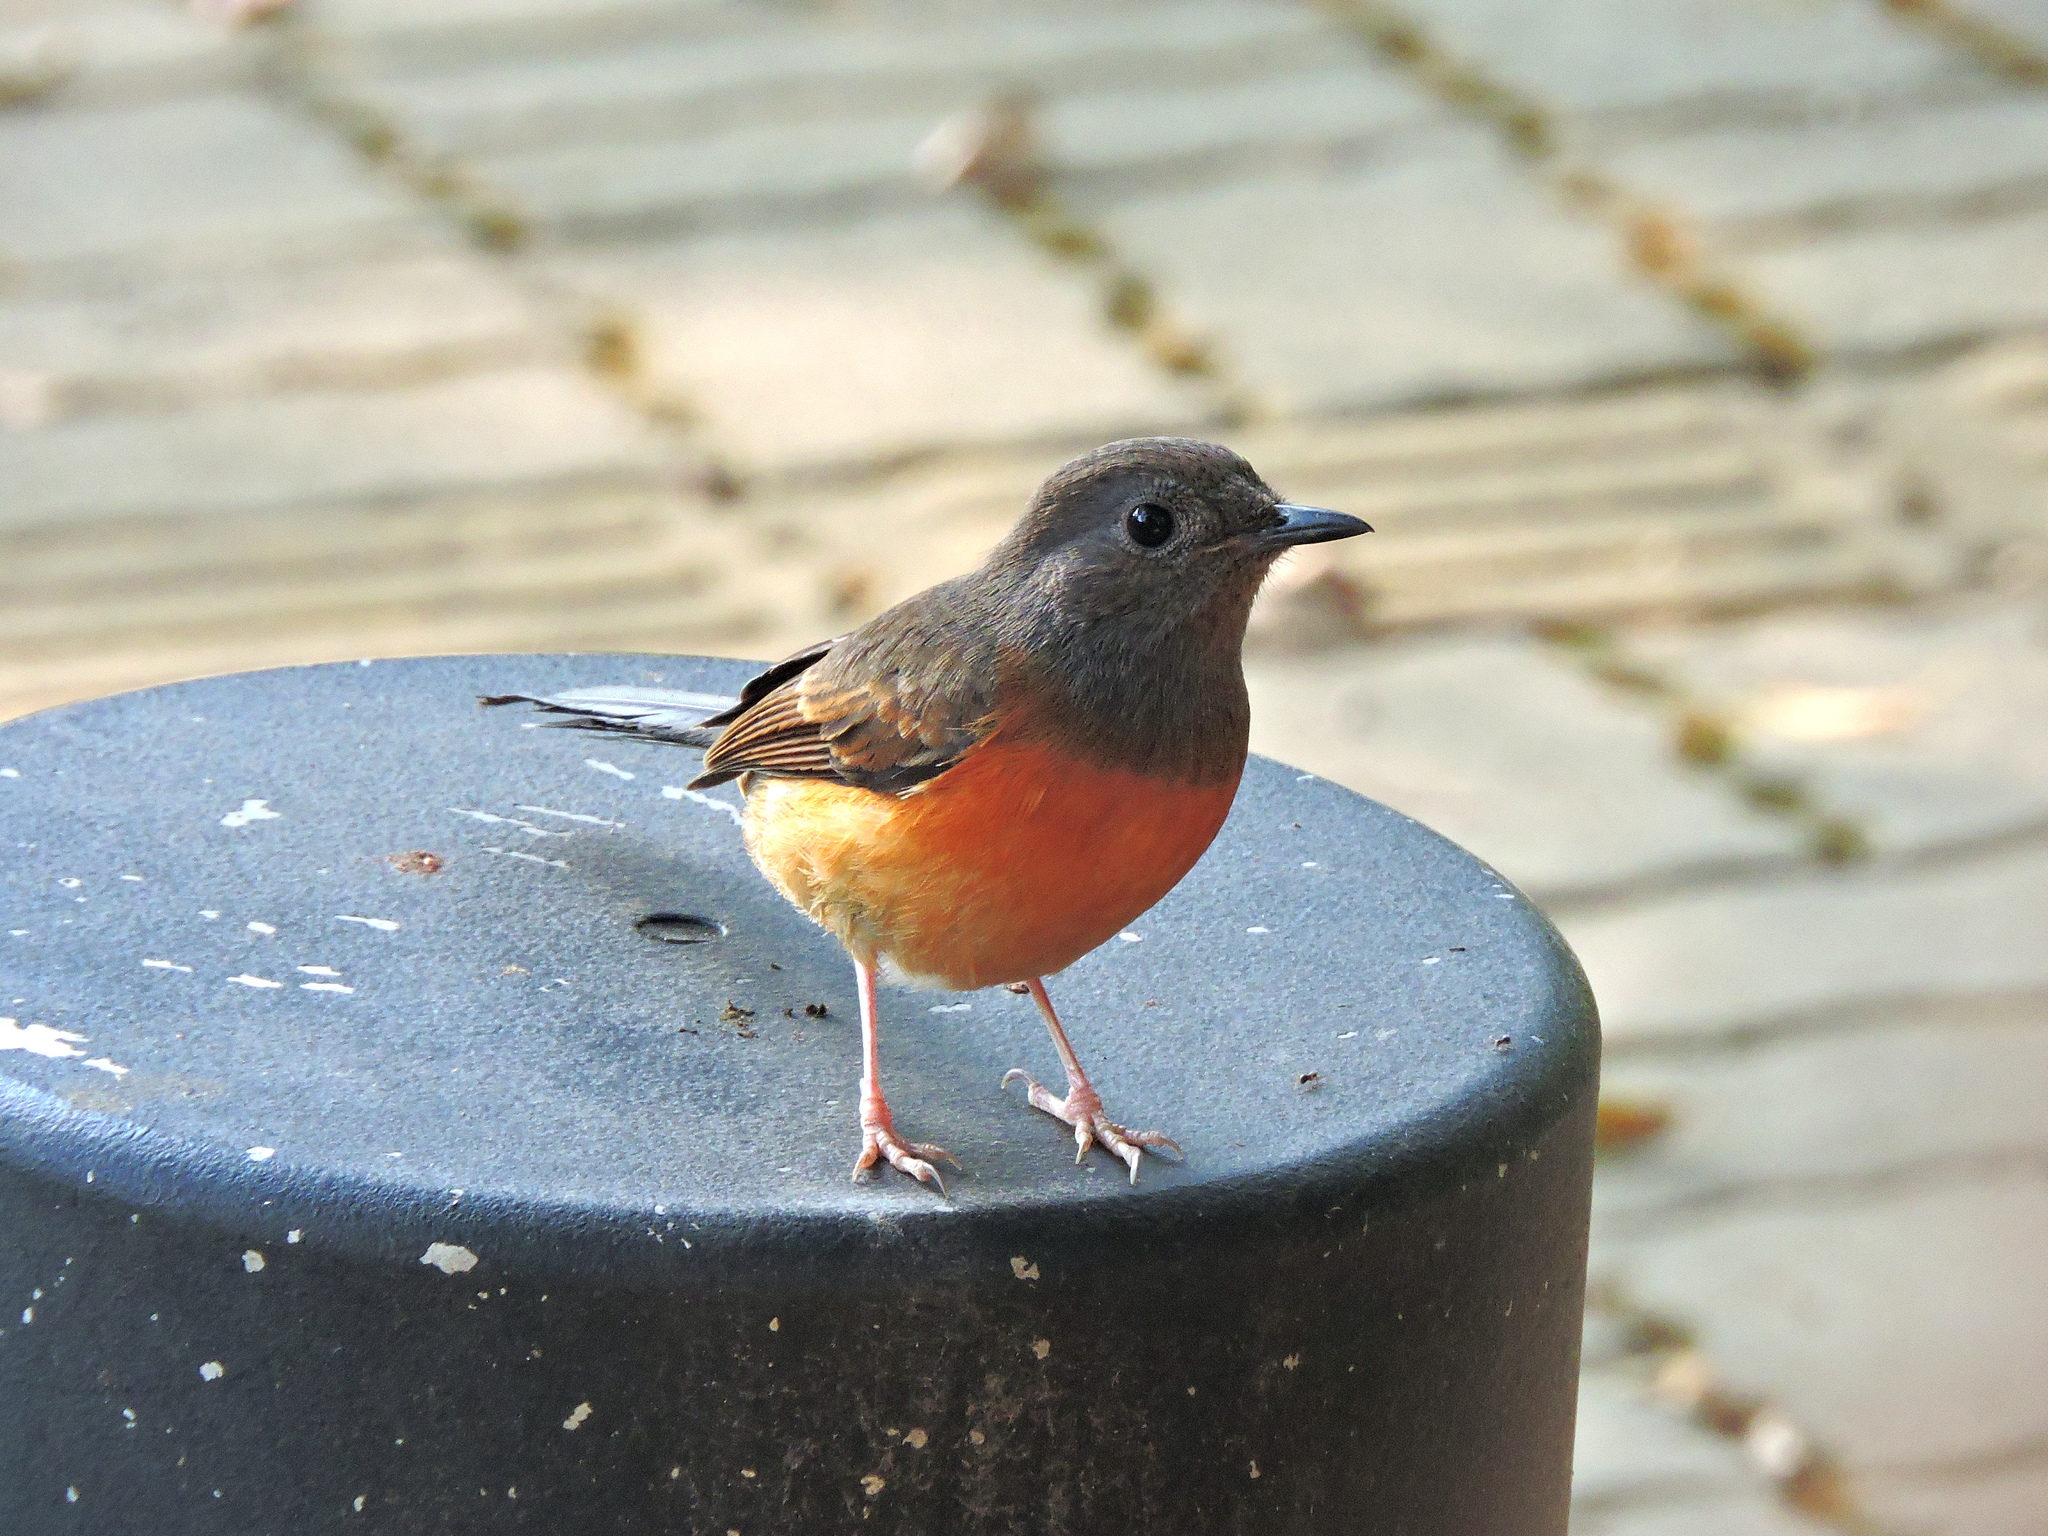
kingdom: Animalia
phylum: Chordata
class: Aves
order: Passeriformes
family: Muscicapidae
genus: Copsychus
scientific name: Copsychus malabaricus
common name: White-rumped shama
